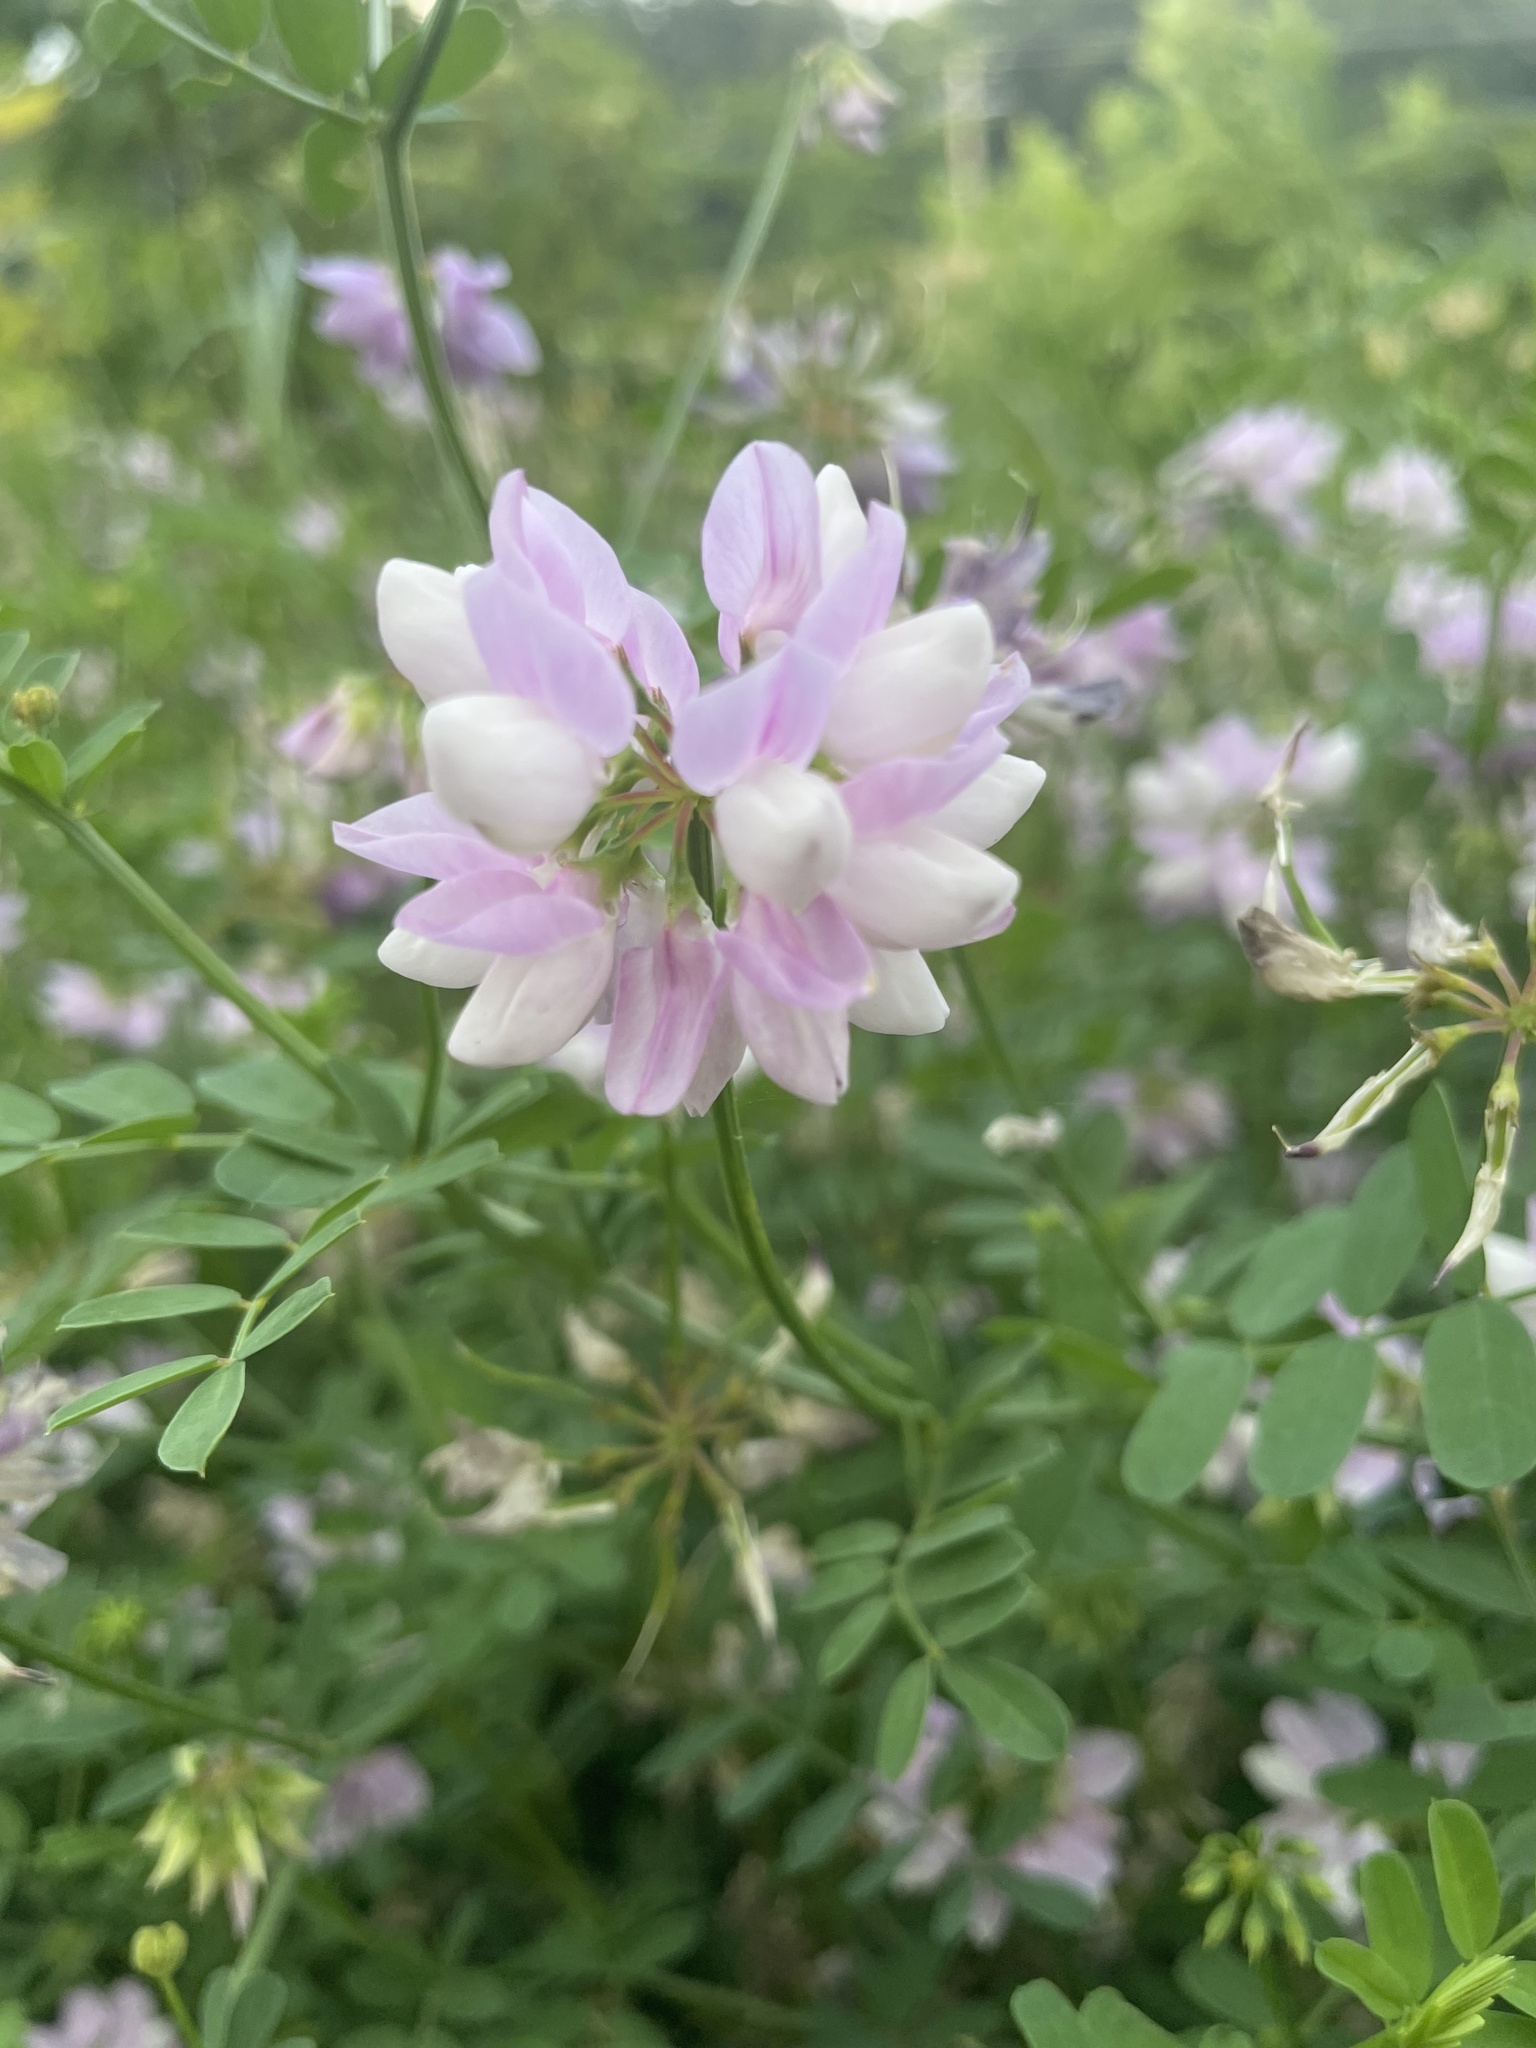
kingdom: Plantae
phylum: Tracheophyta
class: Magnoliopsida
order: Fabales
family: Fabaceae
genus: Coronilla
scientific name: Coronilla varia
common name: Crownvetch
